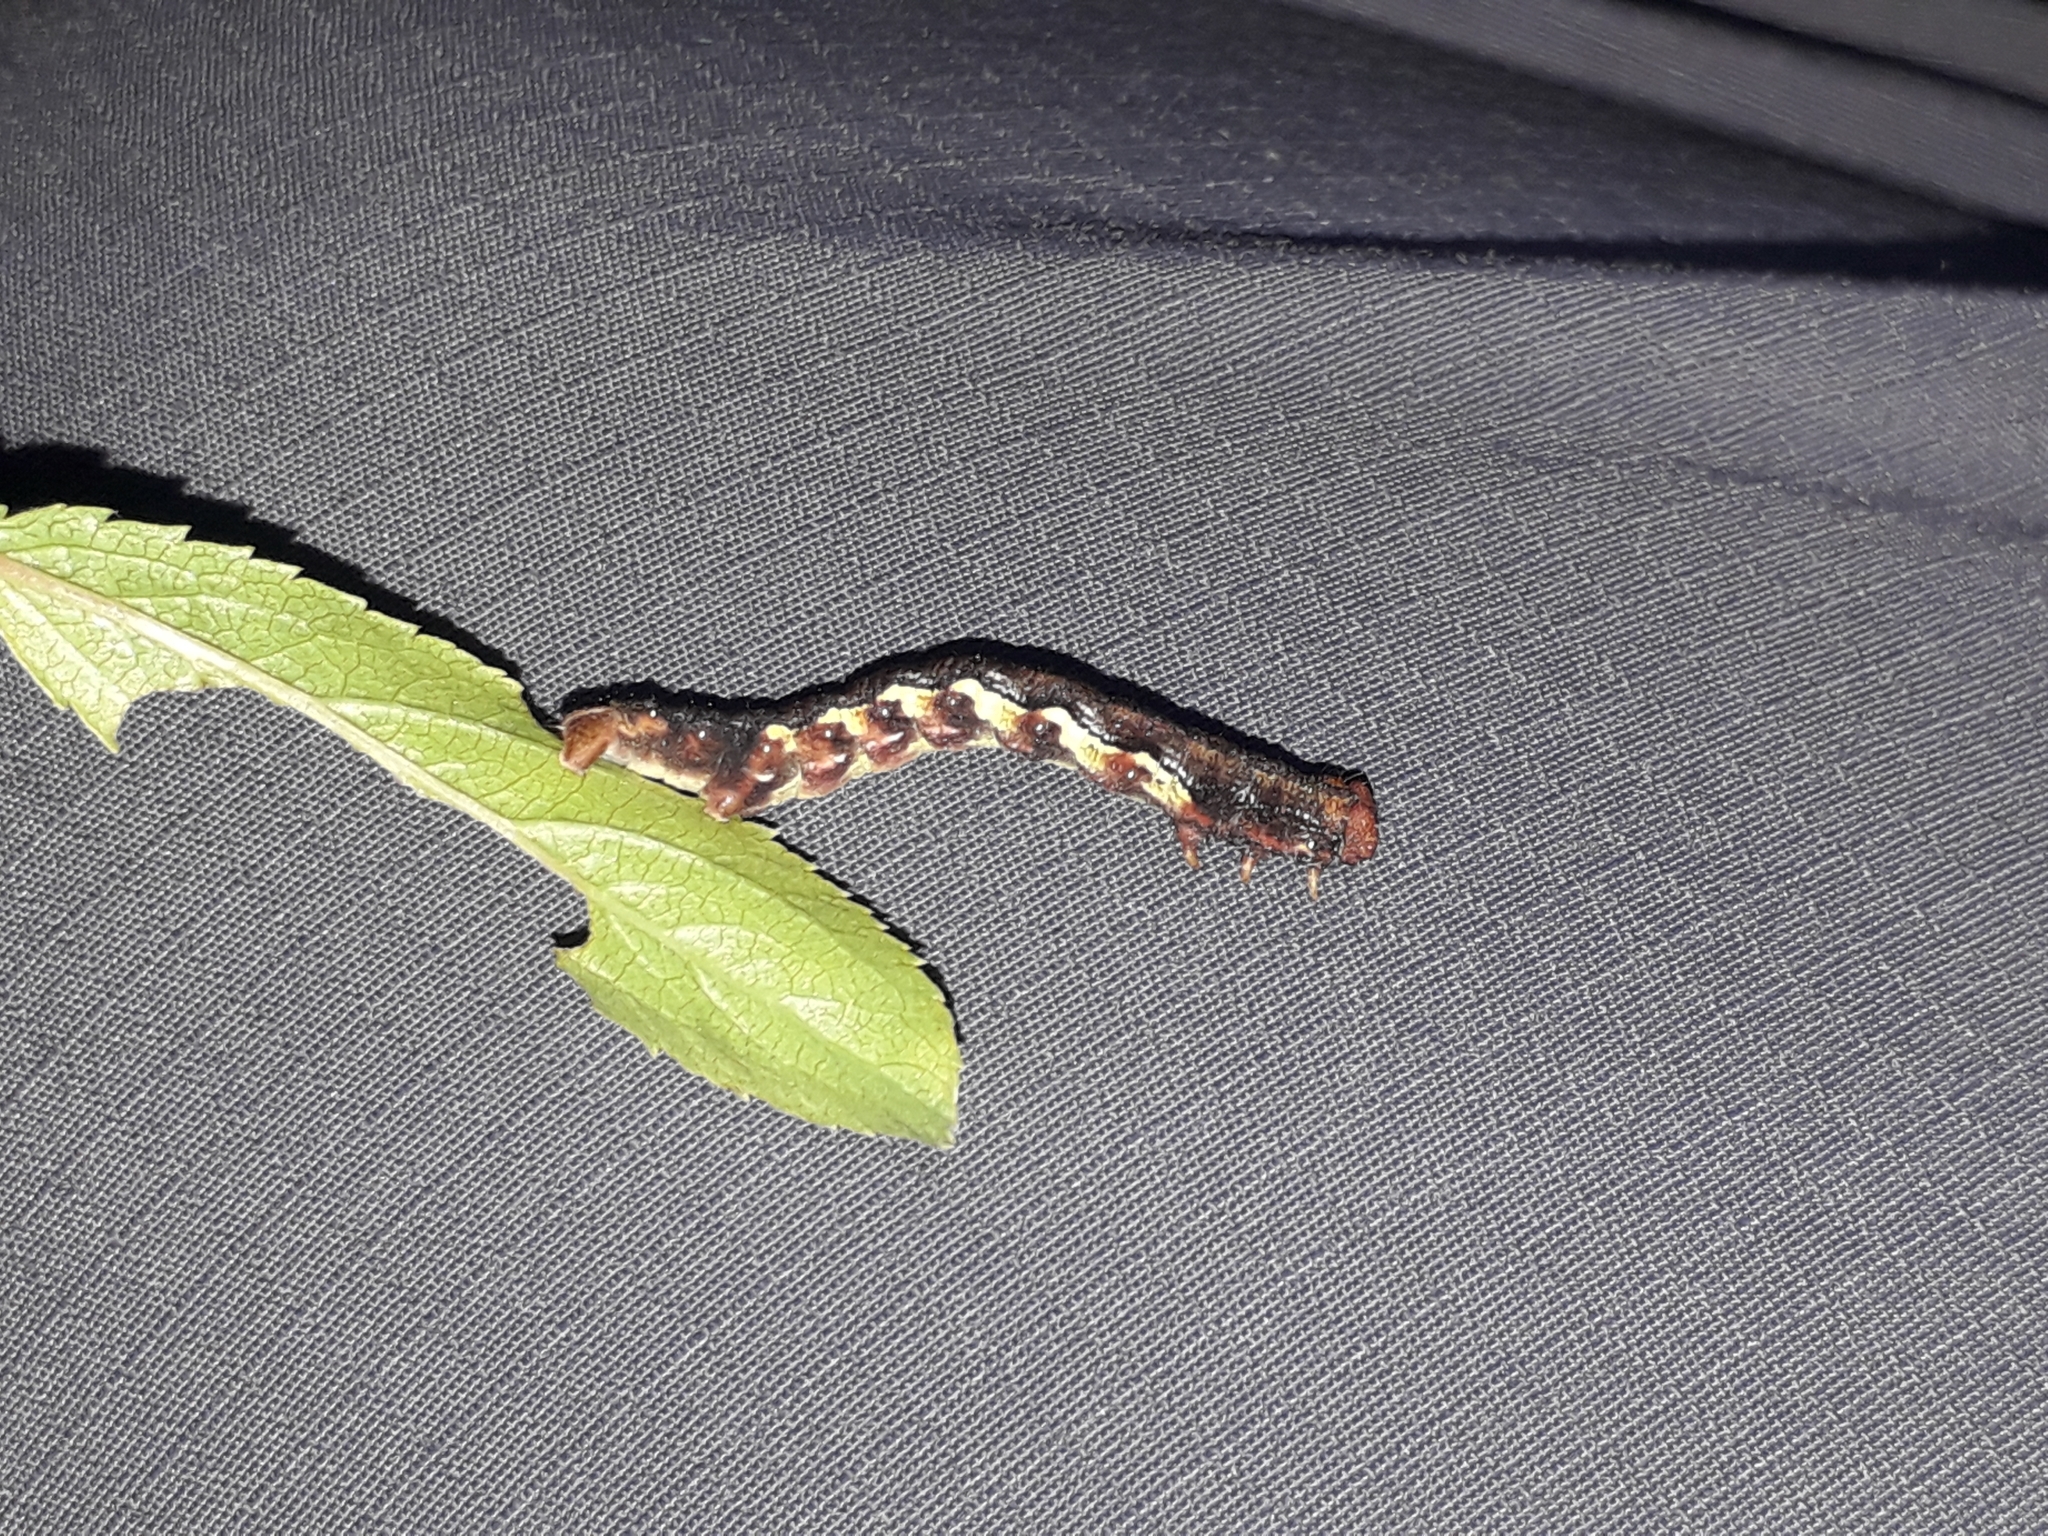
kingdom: Animalia
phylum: Arthropoda
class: Insecta
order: Lepidoptera
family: Geometridae
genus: Erannis
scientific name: Erannis defoliaria
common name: Mottled umber
